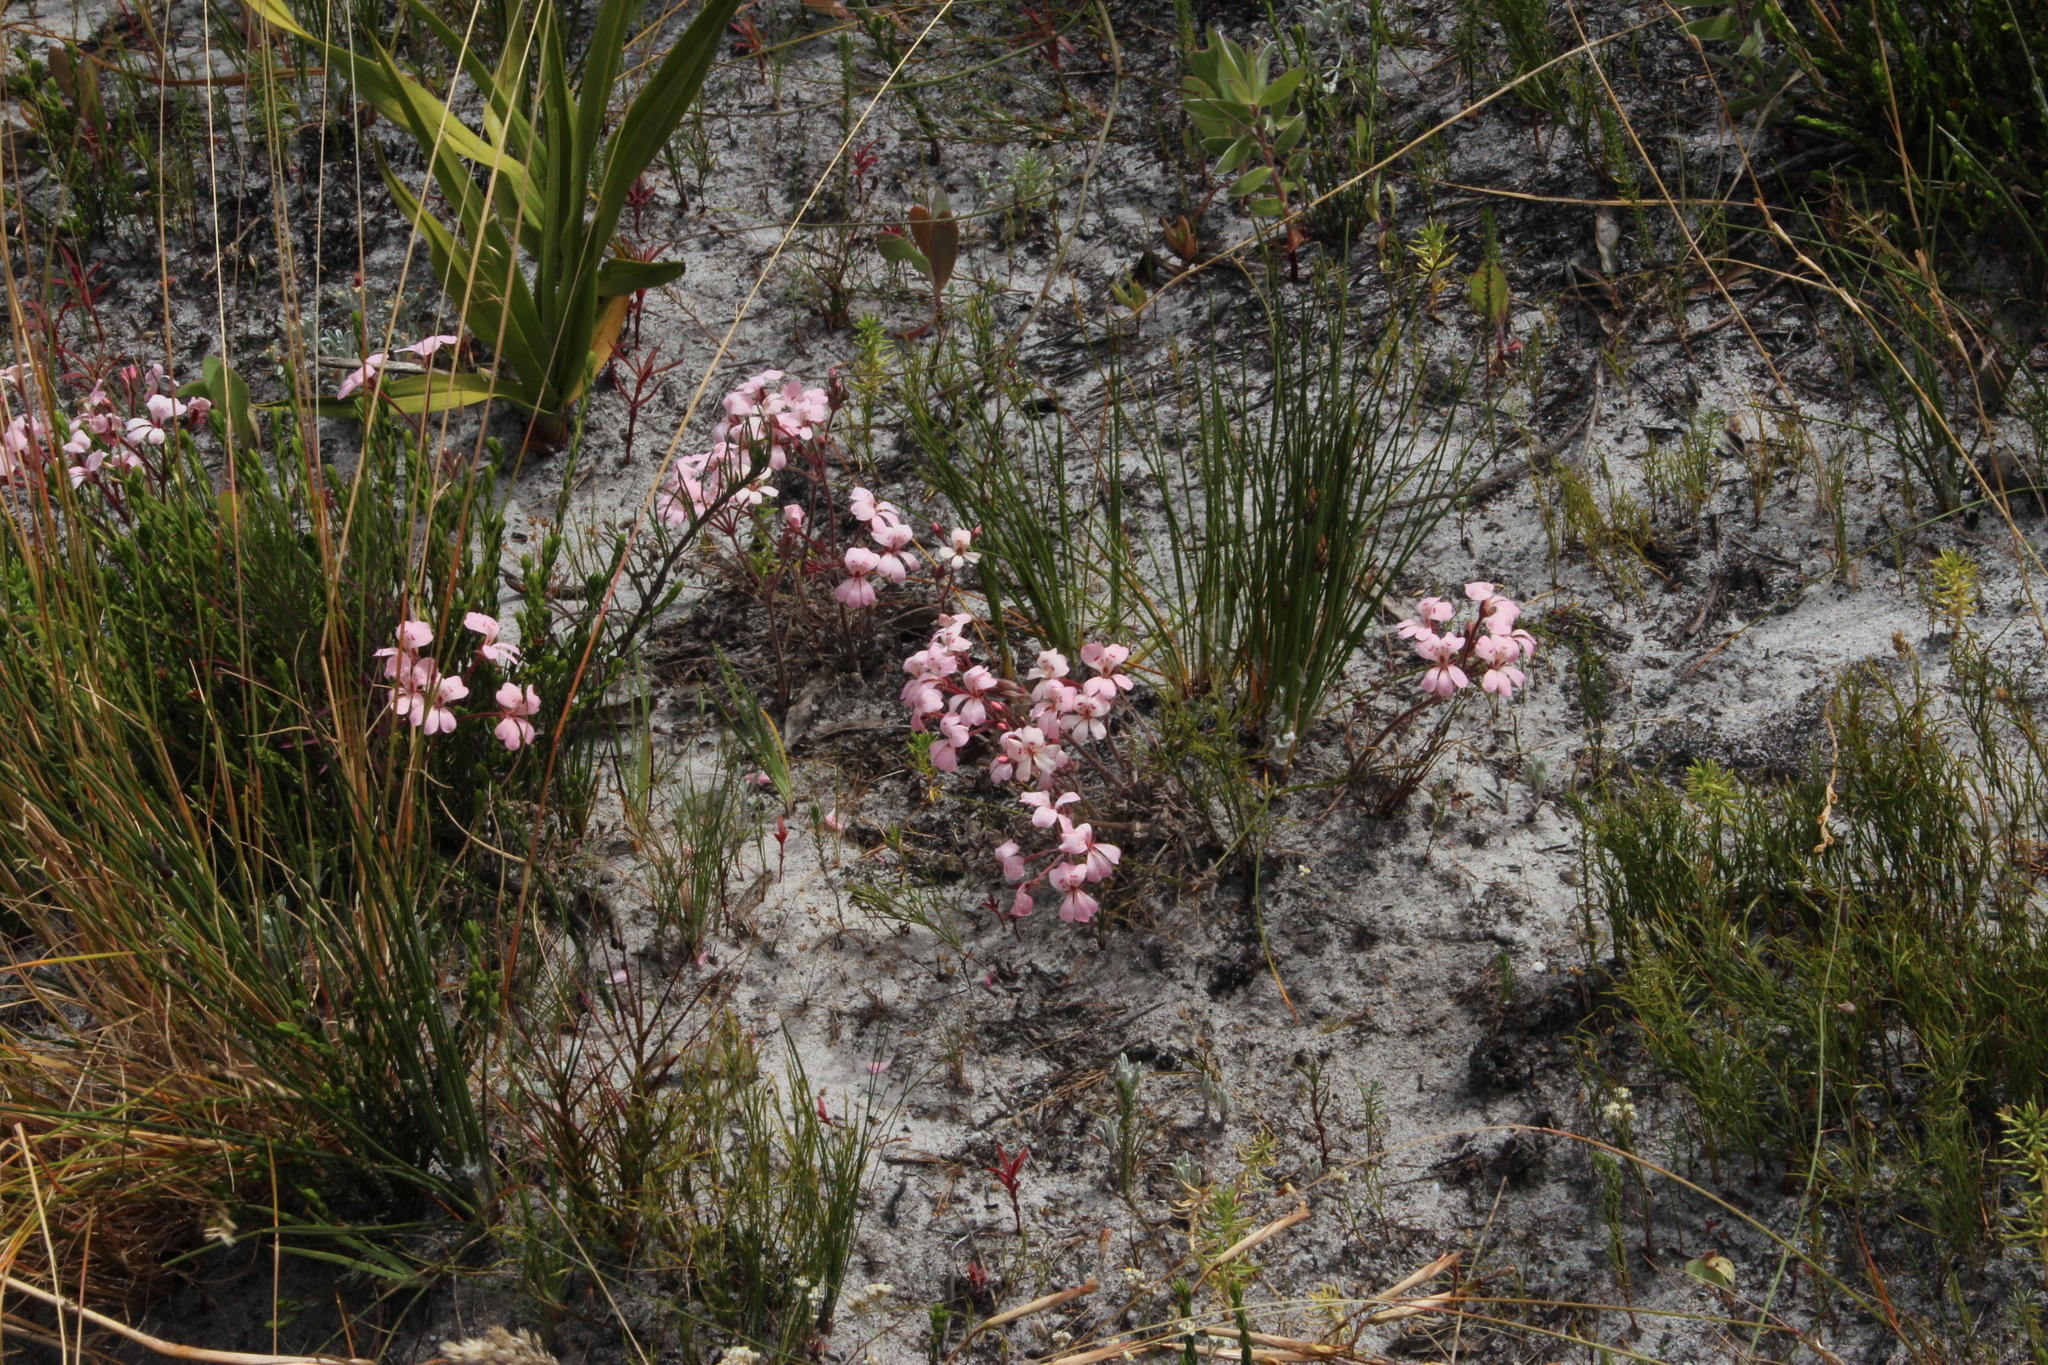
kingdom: Plantae
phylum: Tracheophyta
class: Magnoliopsida
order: Geraniales
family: Geraniaceae
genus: Pelargonium
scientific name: Pelargonium pinnatum
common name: Pinnated pelargonium
